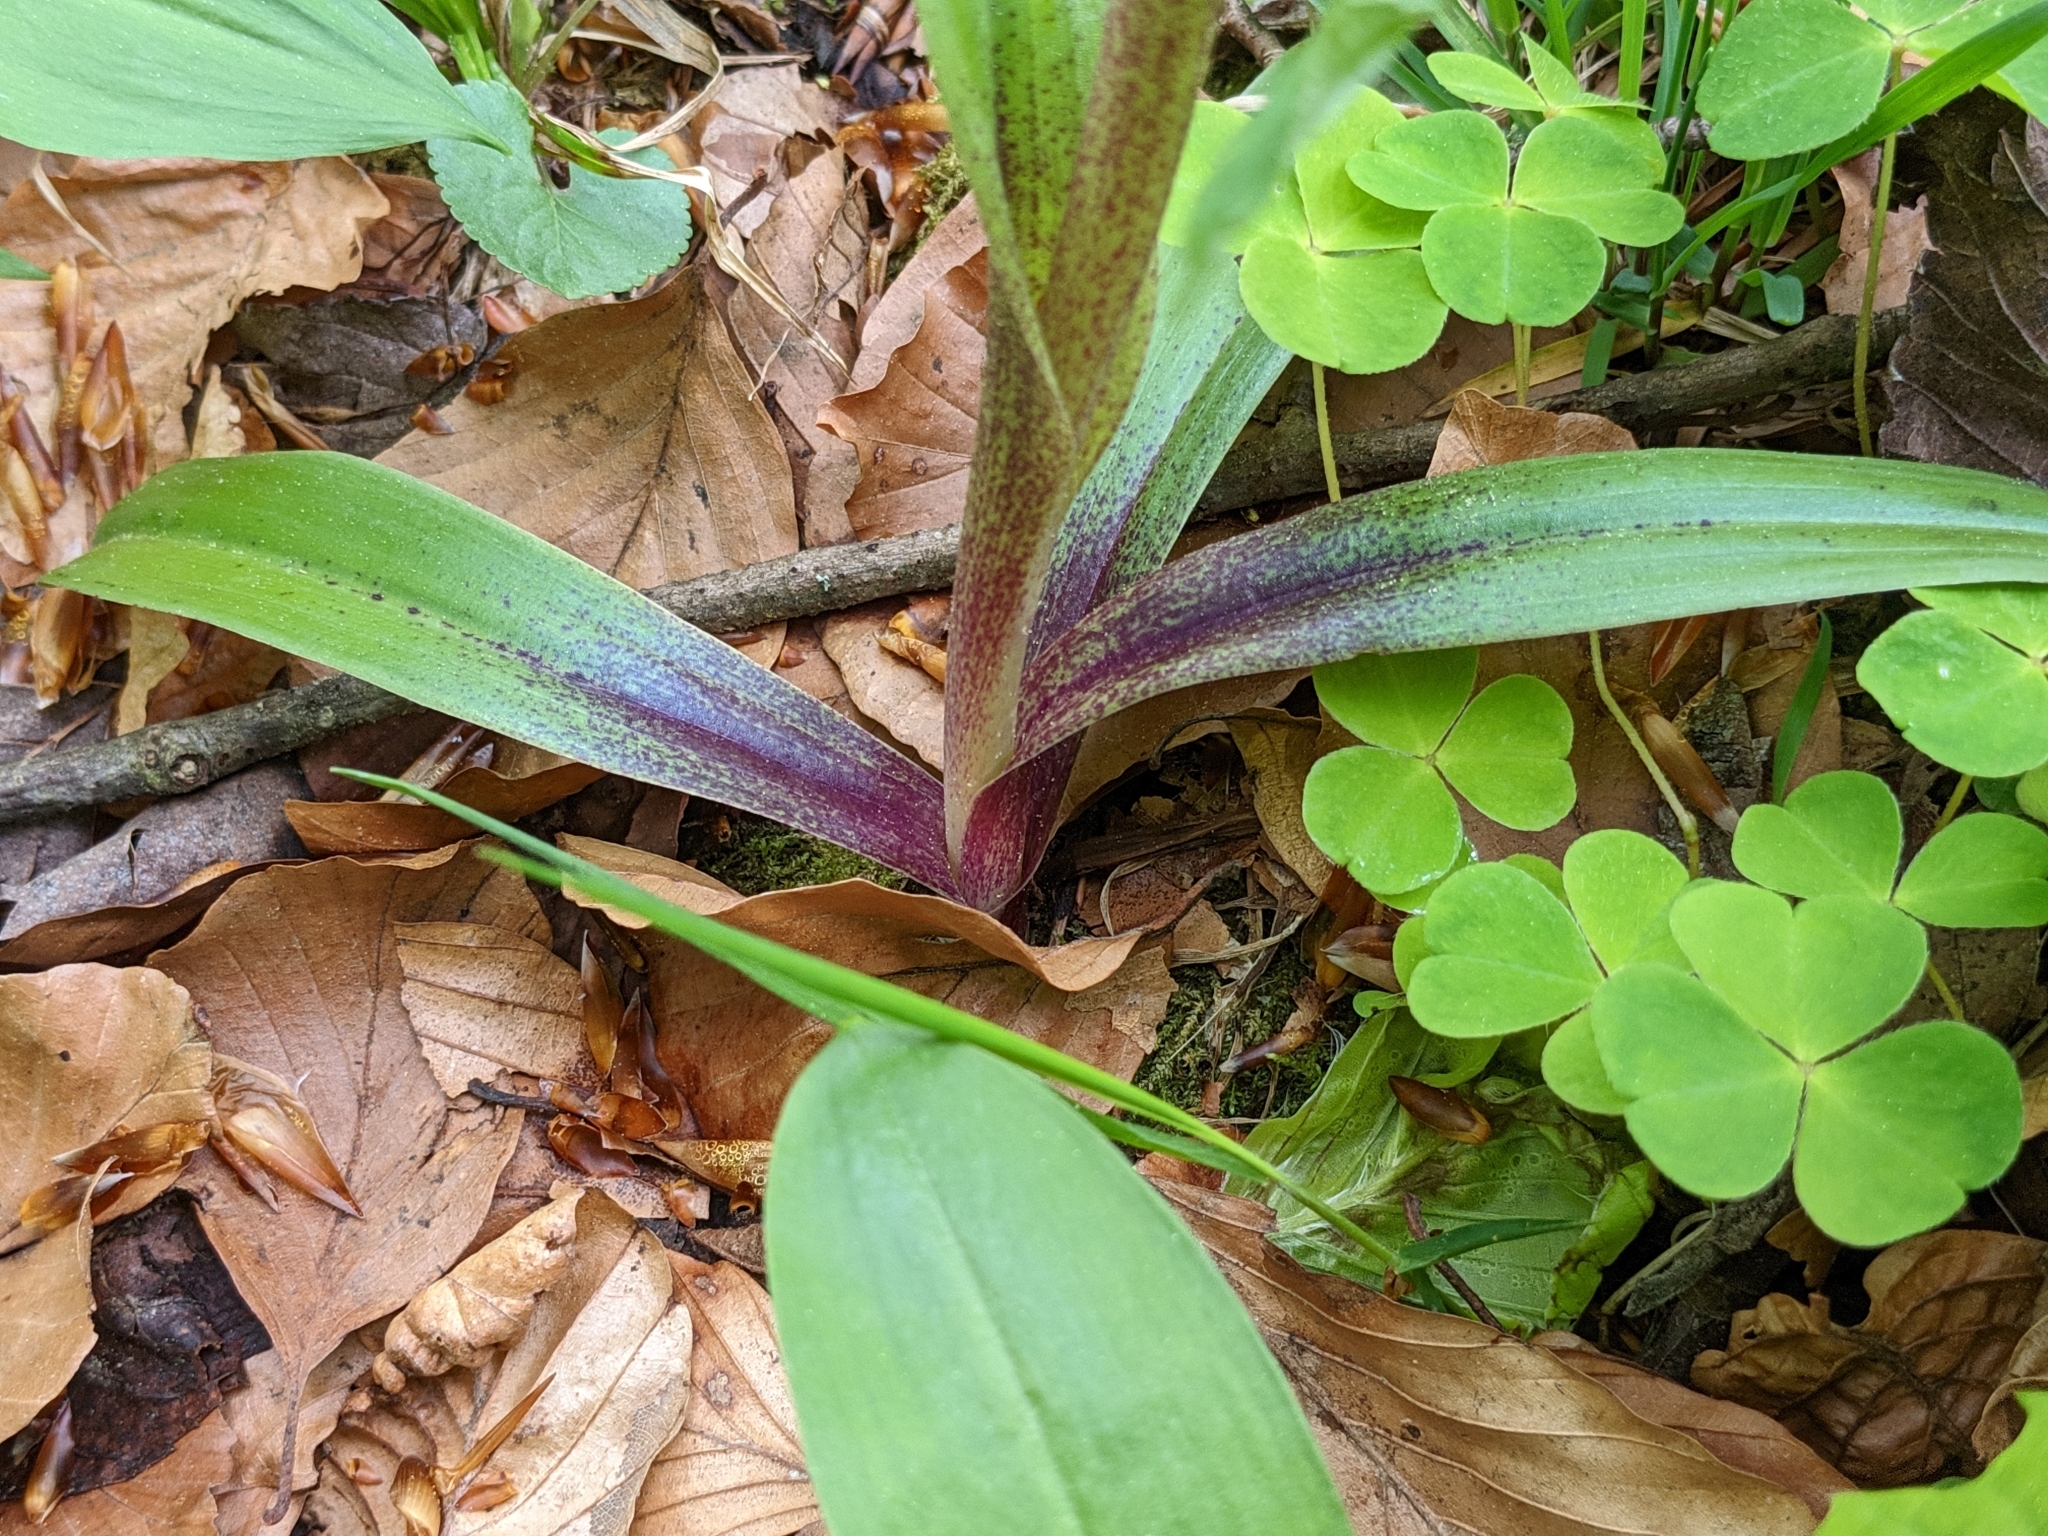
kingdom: Plantae
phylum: Tracheophyta
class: Liliopsida
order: Asparagales
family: Orchidaceae
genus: Orchis
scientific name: Orchis mascula
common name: Early-purple orchid
